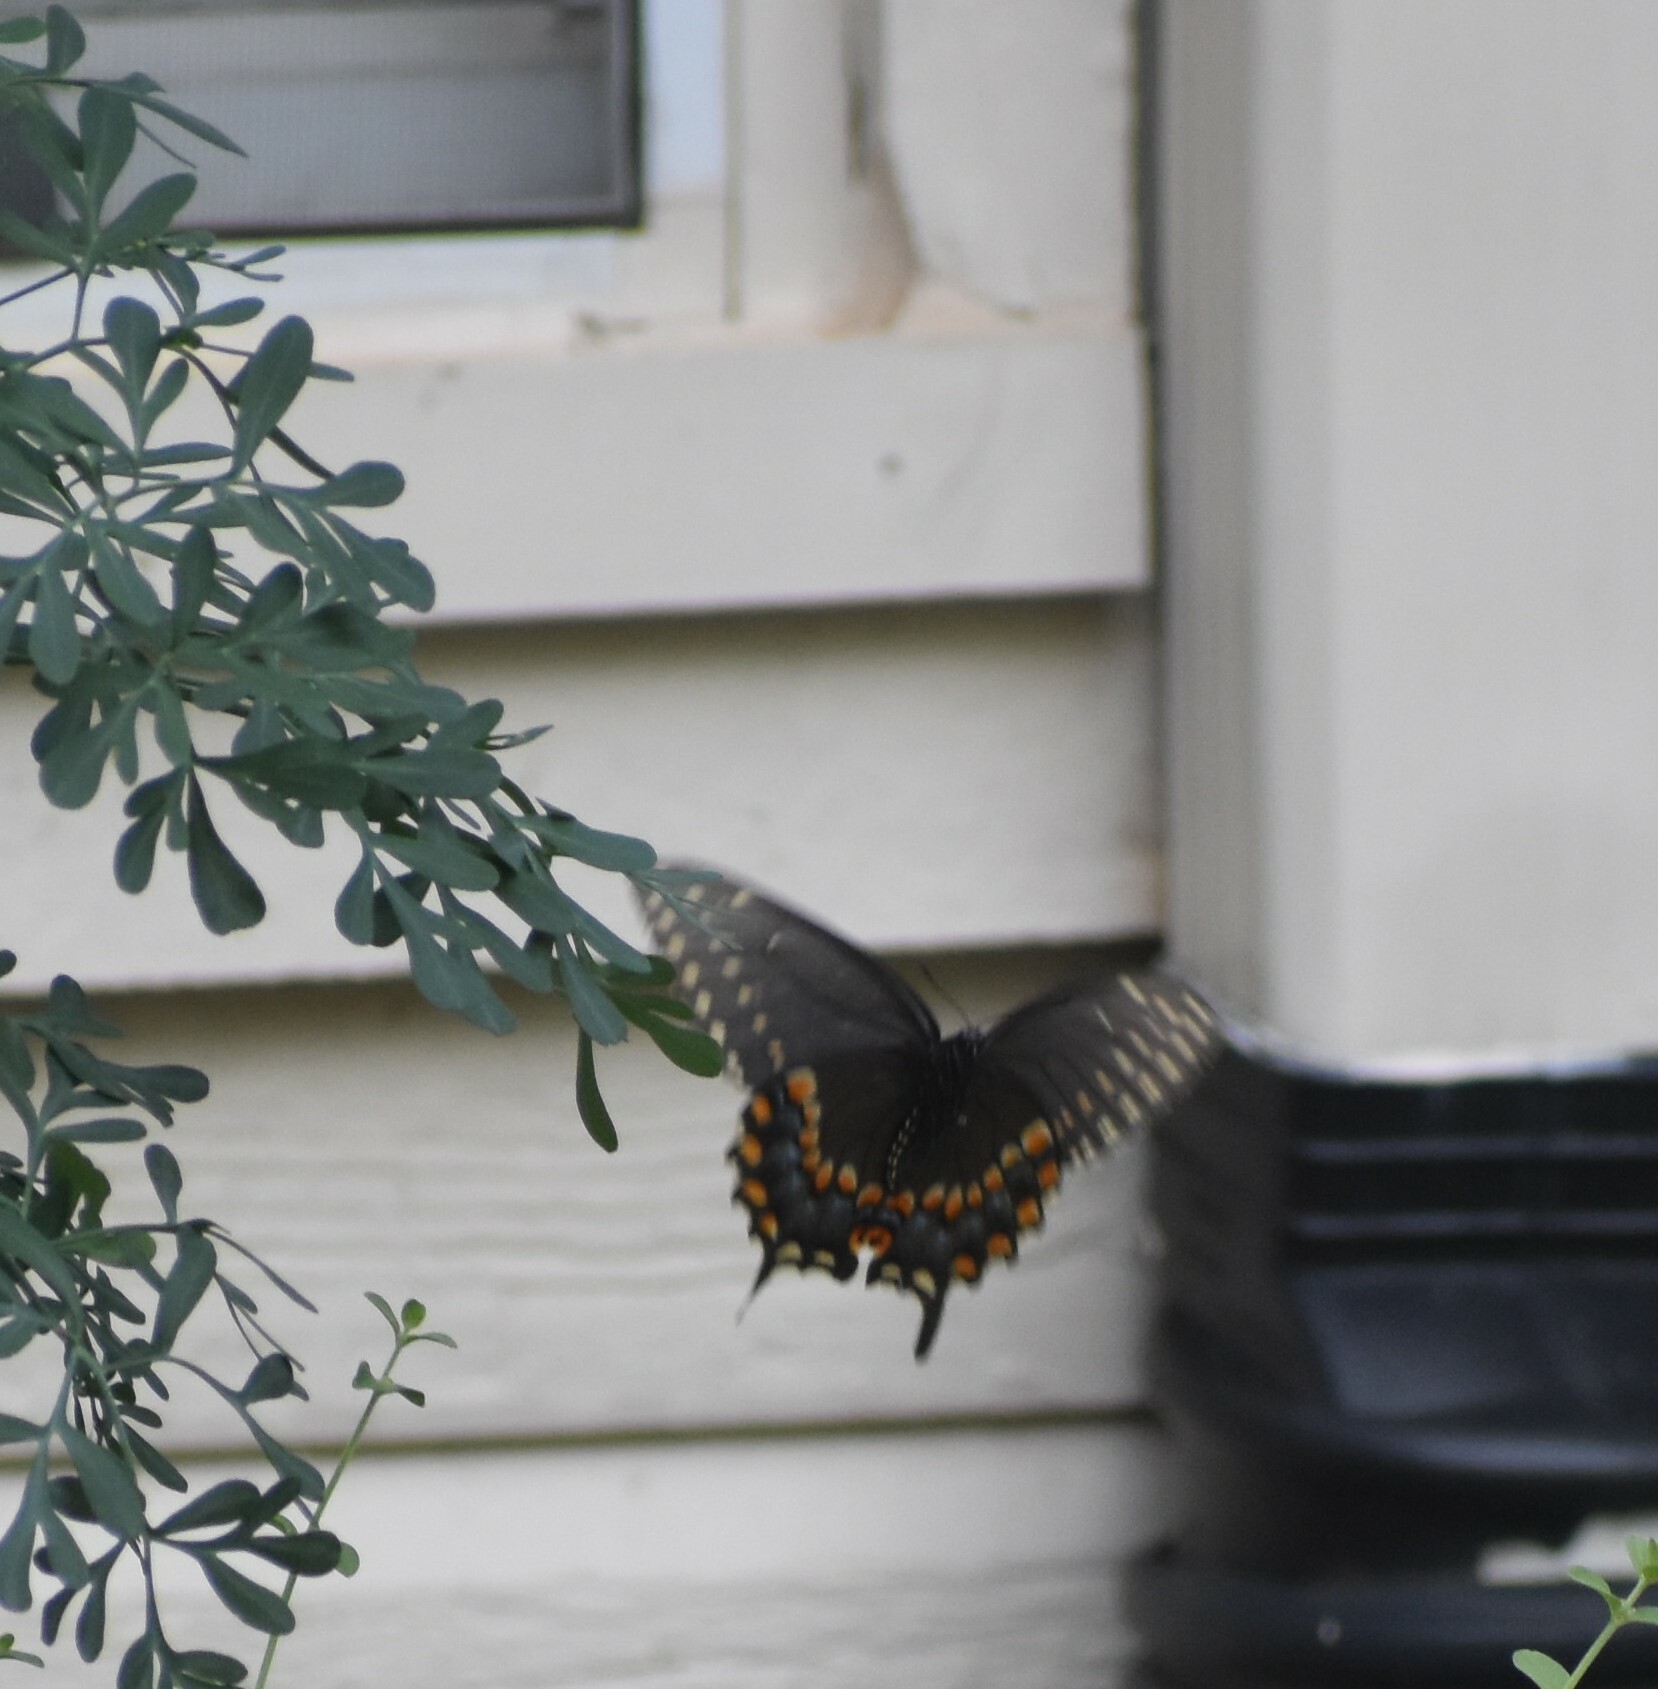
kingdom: Animalia
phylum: Arthropoda
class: Insecta
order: Lepidoptera
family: Papilionidae
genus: Papilio
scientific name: Papilio polyxenes
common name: Black swallowtail
